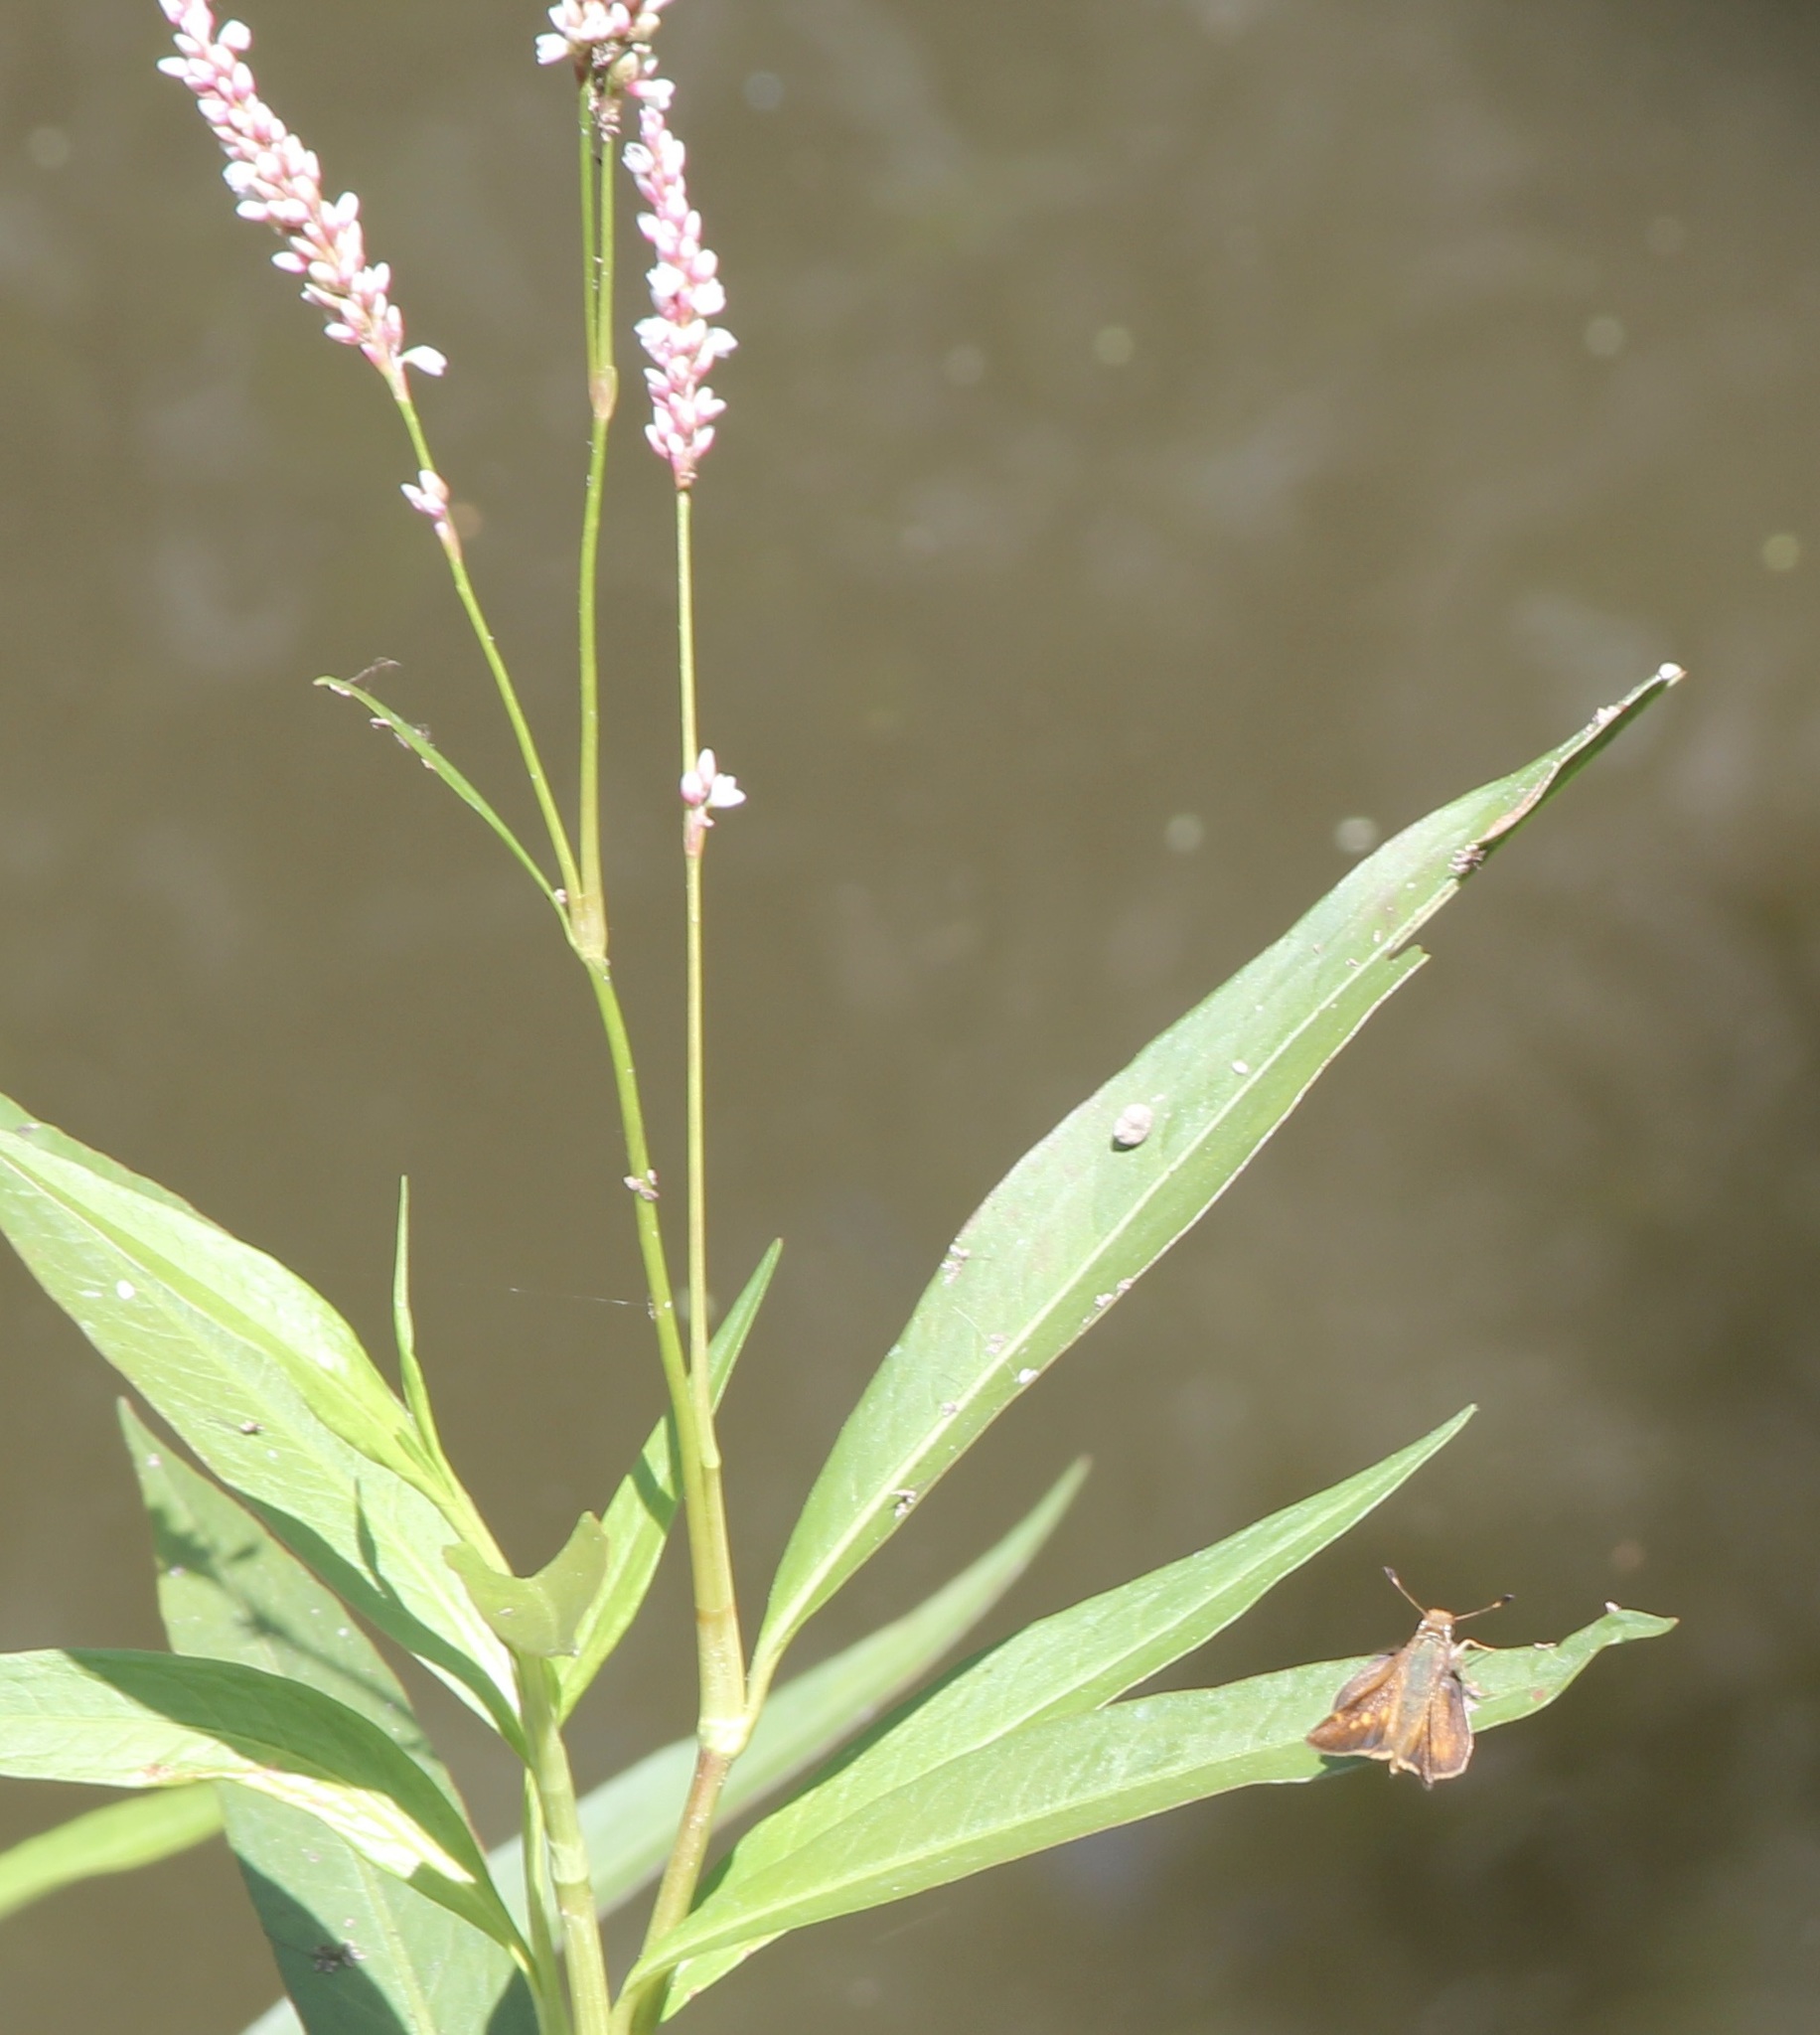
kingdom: Animalia
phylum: Arthropoda
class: Insecta
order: Lepidoptera
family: Hesperiidae
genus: Lon
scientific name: Lon melane
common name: Umber skipper
